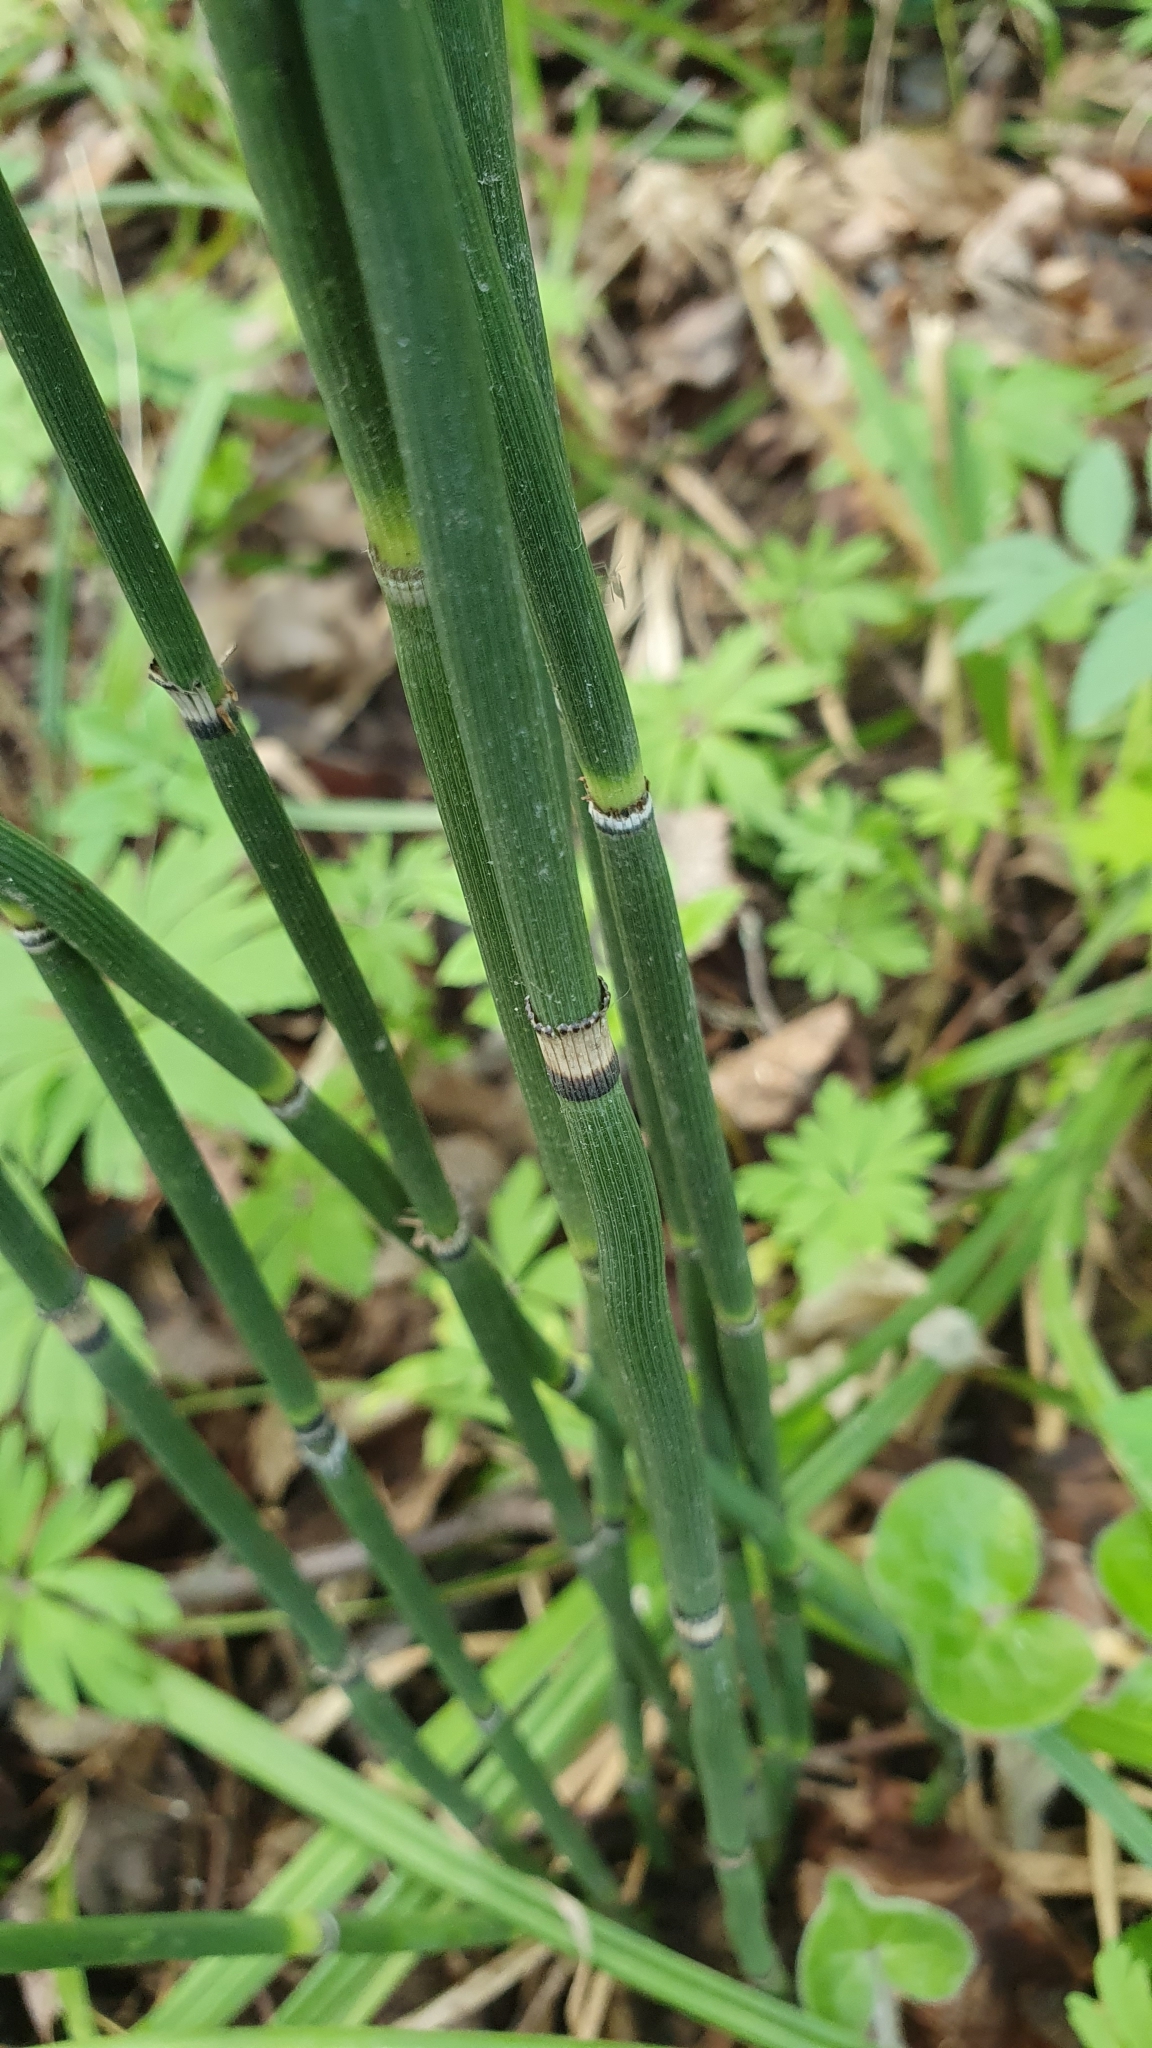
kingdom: Plantae
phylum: Tracheophyta
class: Polypodiopsida
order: Equisetales
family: Equisetaceae
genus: Equisetum
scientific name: Equisetum hyemale
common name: Rough horsetail
